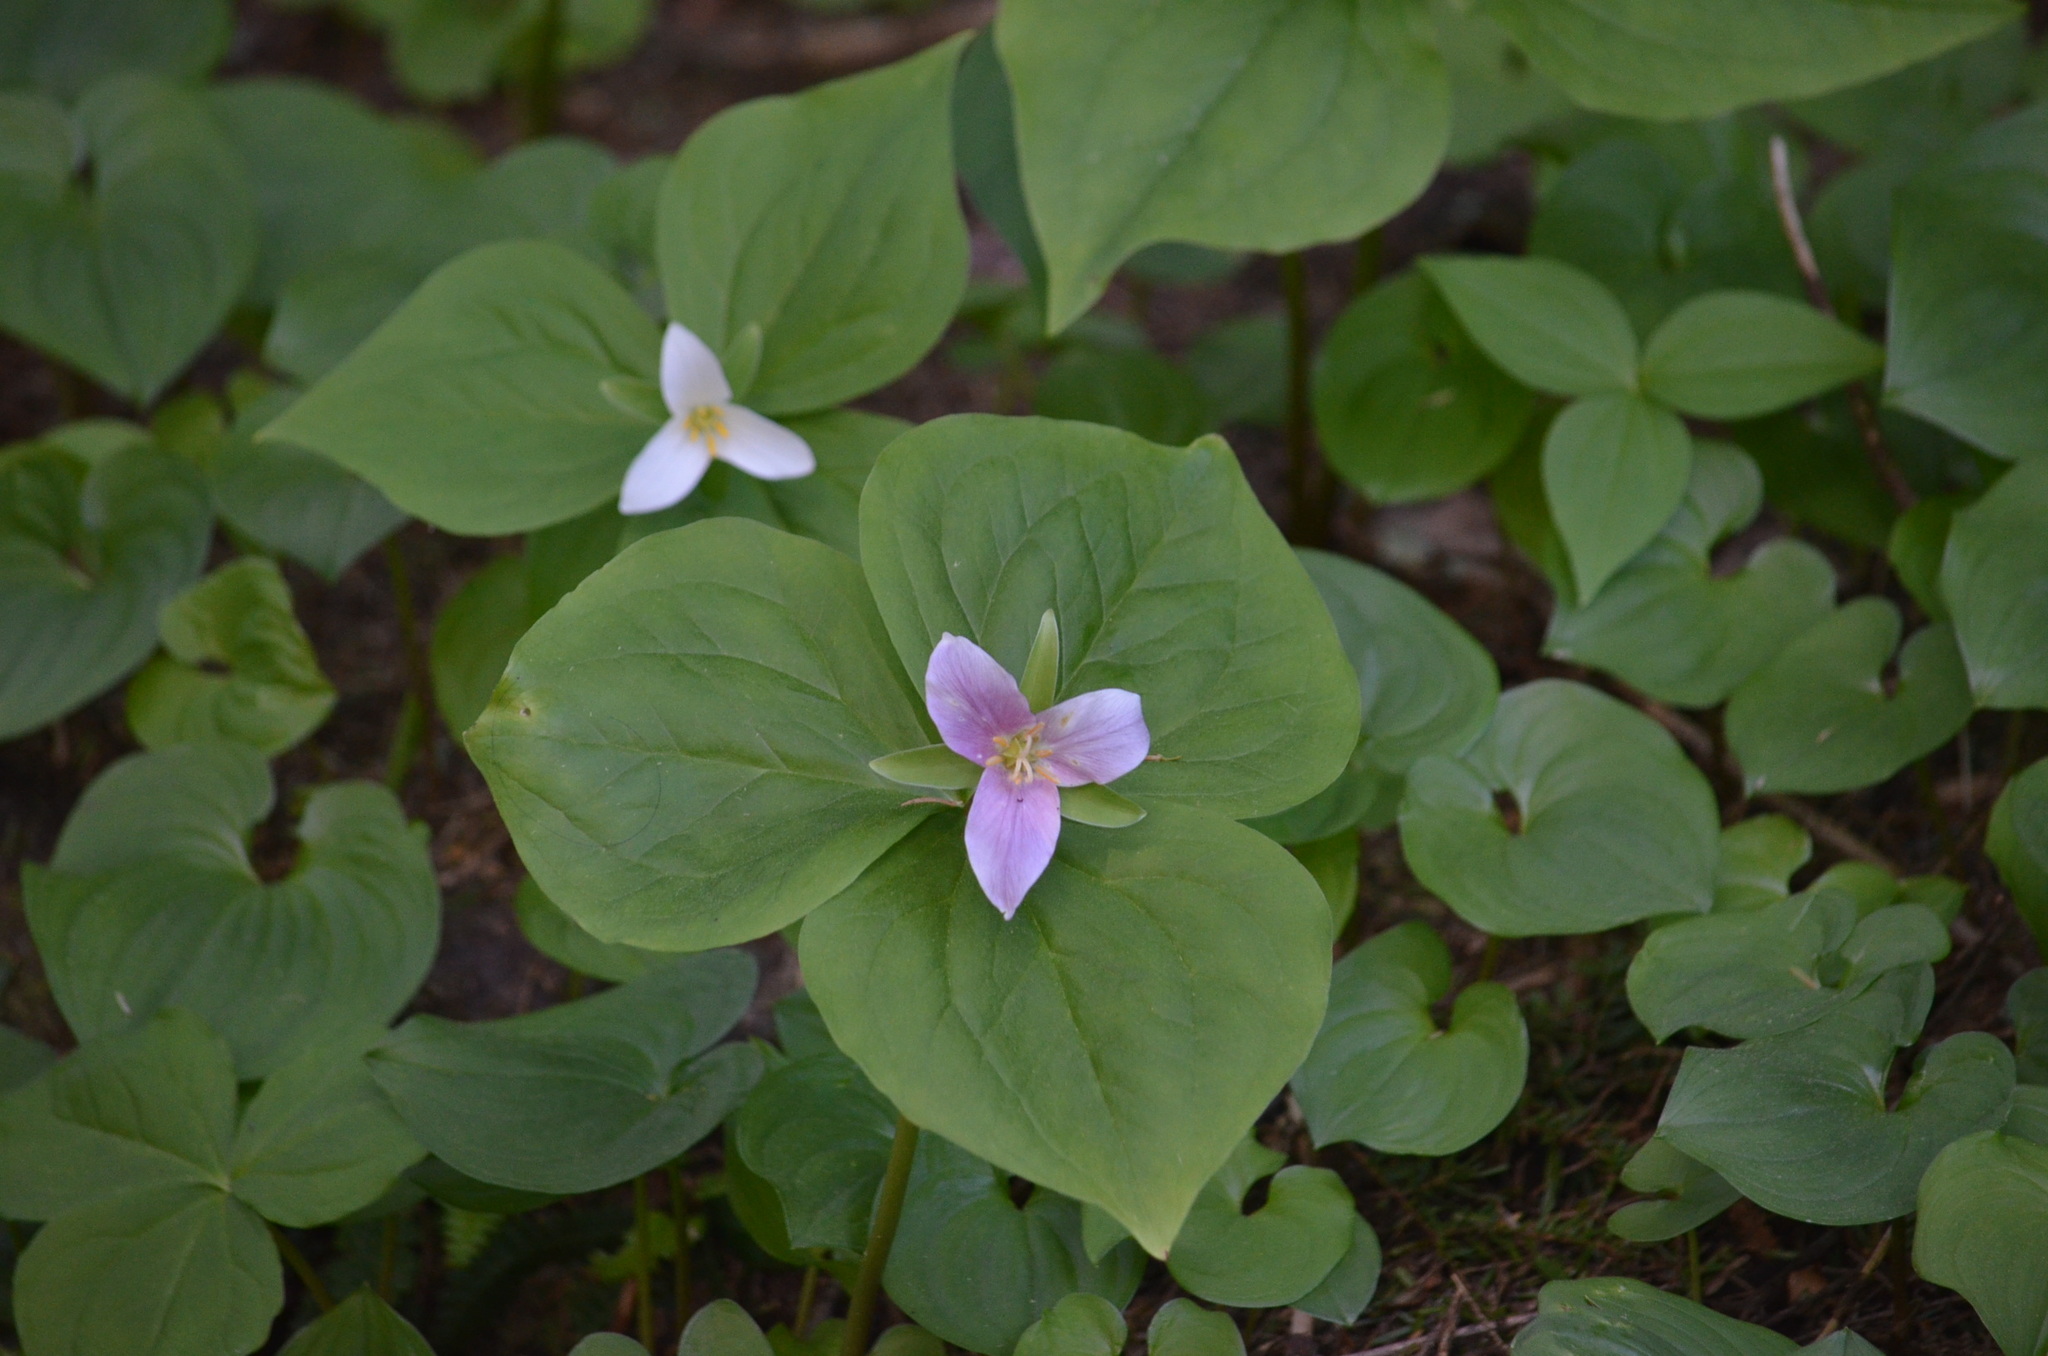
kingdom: Plantae
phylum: Tracheophyta
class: Liliopsida
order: Liliales
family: Melanthiaceae
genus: Trillium
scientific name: Trillium ovatum
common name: Pacific trillium
